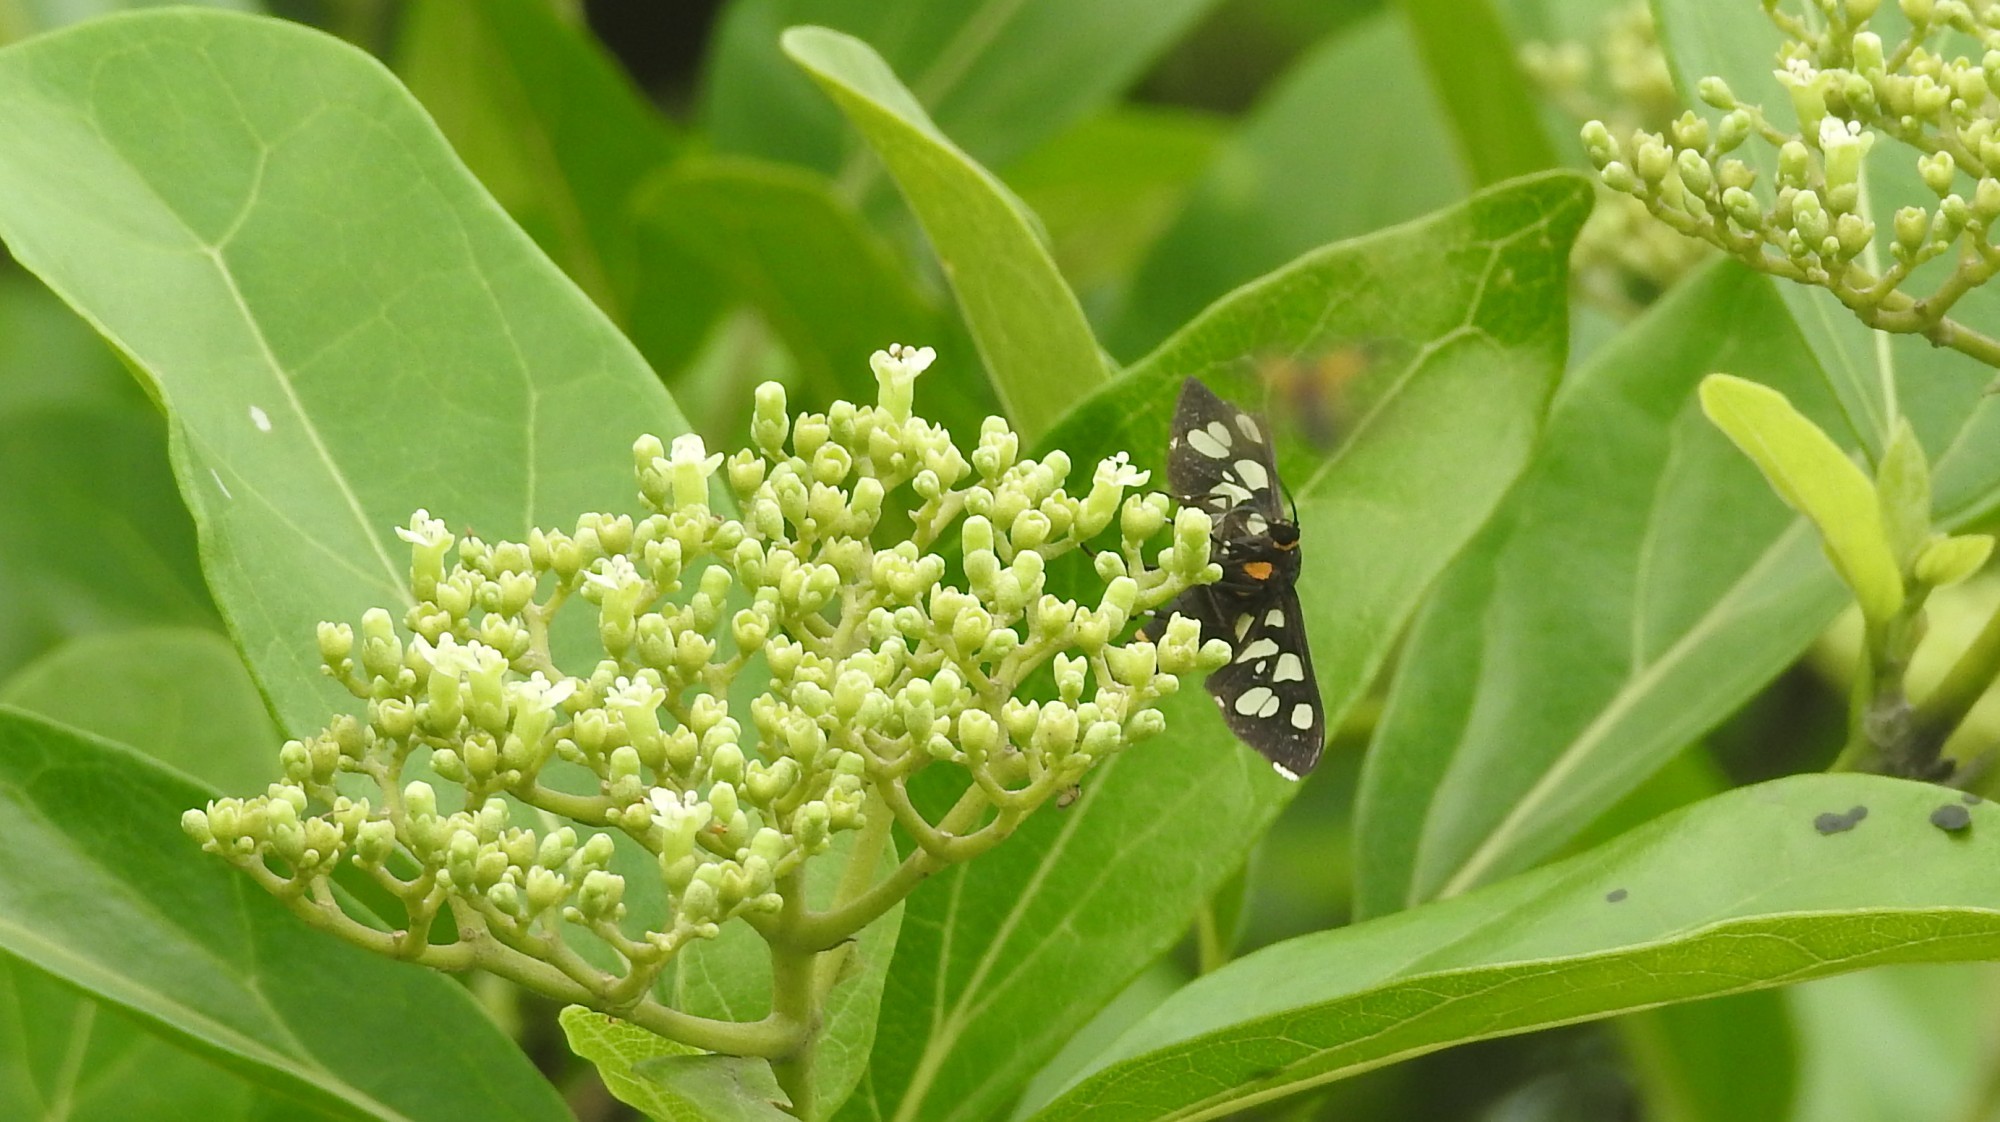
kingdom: Animalia
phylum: Arthropoda
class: Insecta
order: Lepidoptera
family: Erebidae
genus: Amata
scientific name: Amata cyssea
